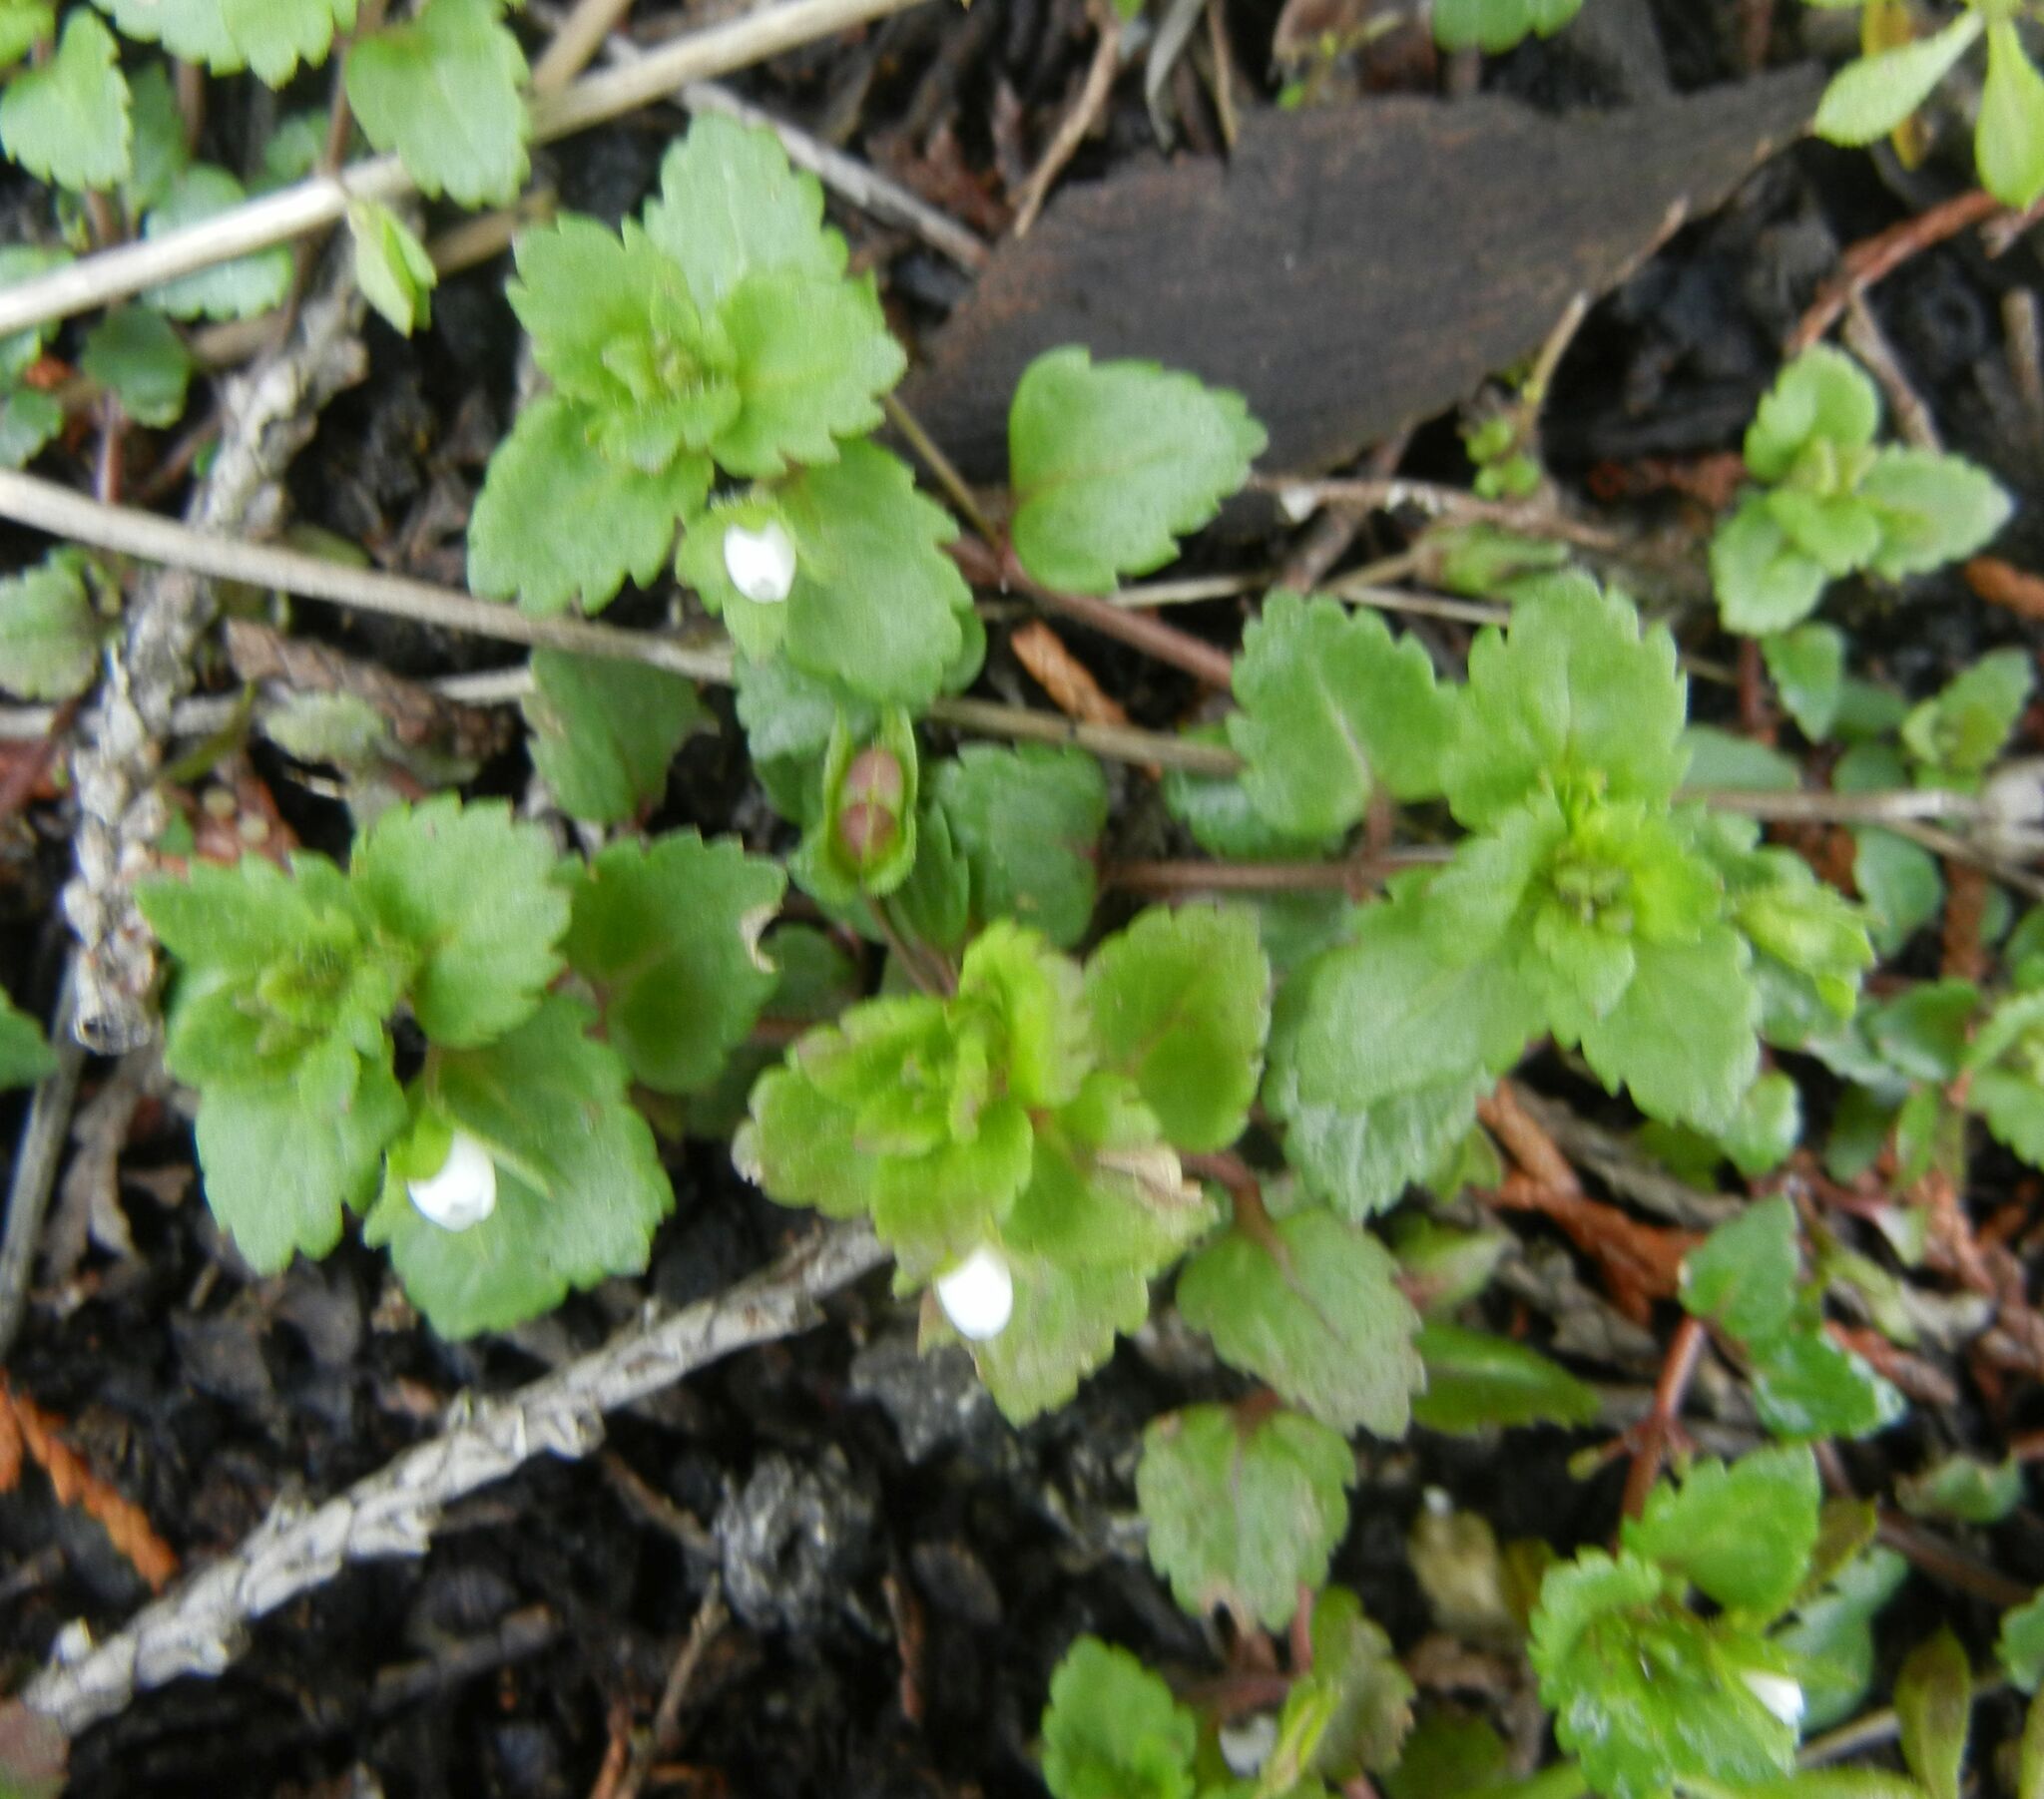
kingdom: Plantae
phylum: Tracheophyta
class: Magnoliopsida
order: Lamiales
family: Plantaginaceae
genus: Veronica
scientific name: Veronica agrestis
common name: Green field-speedwell
